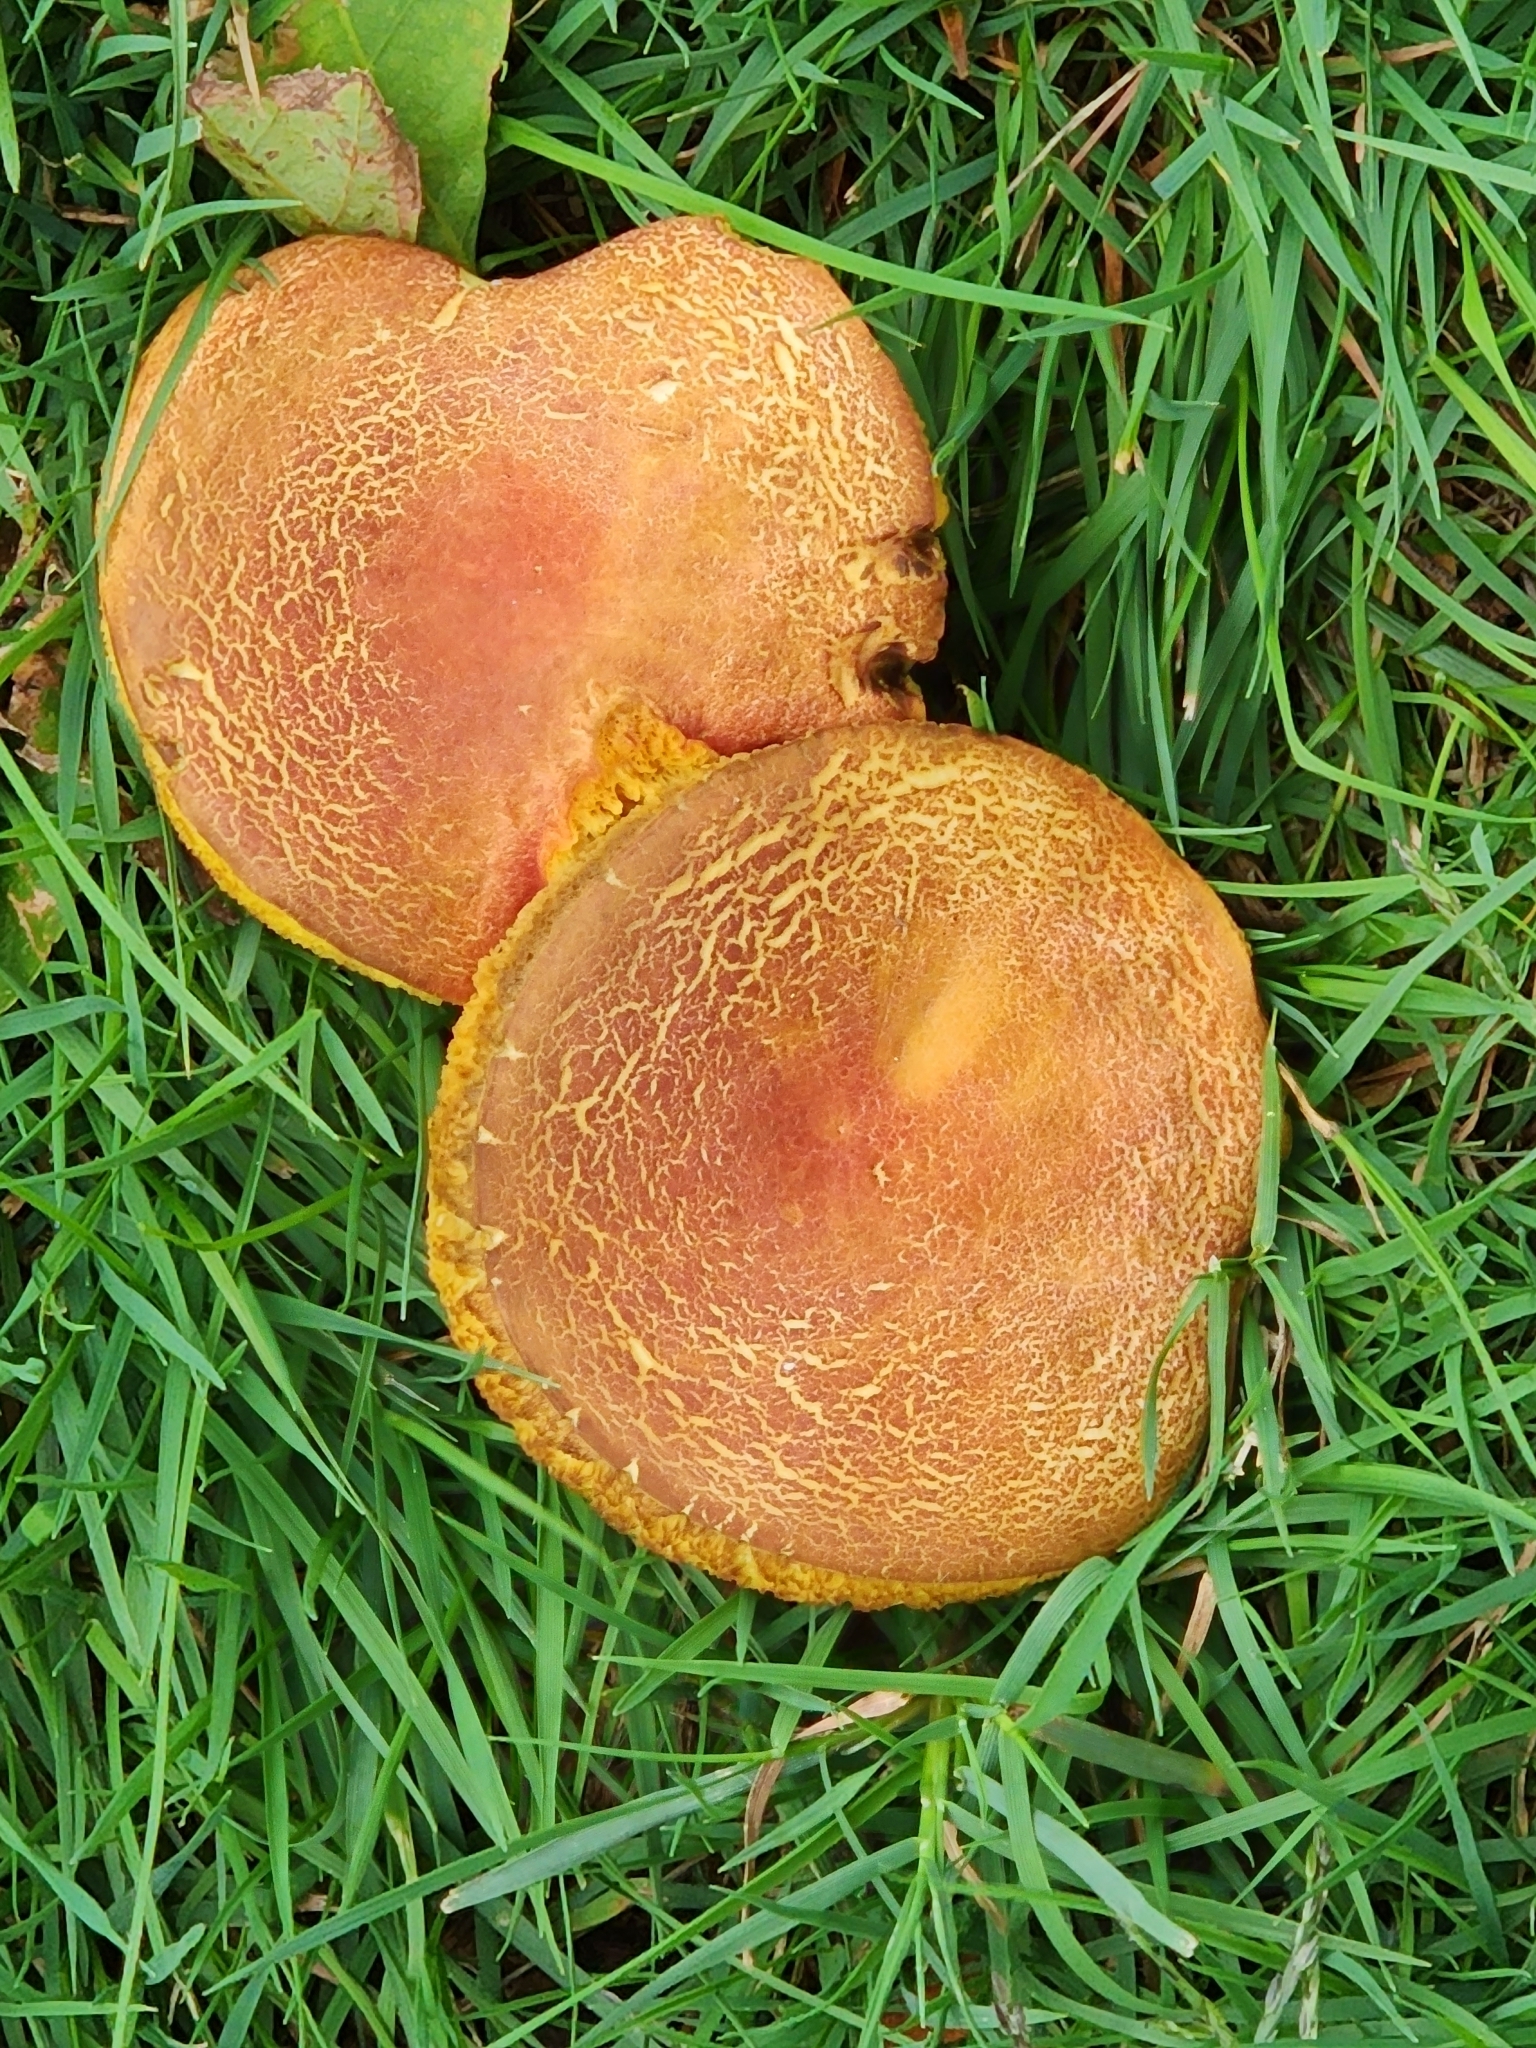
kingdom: Fungi
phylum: Basidiomycota
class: Agaricomycetes
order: Boletales
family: Boletaceae
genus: Xerocomellus
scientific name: Xerocomellus chrysenteron
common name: Red-cracking bolete
